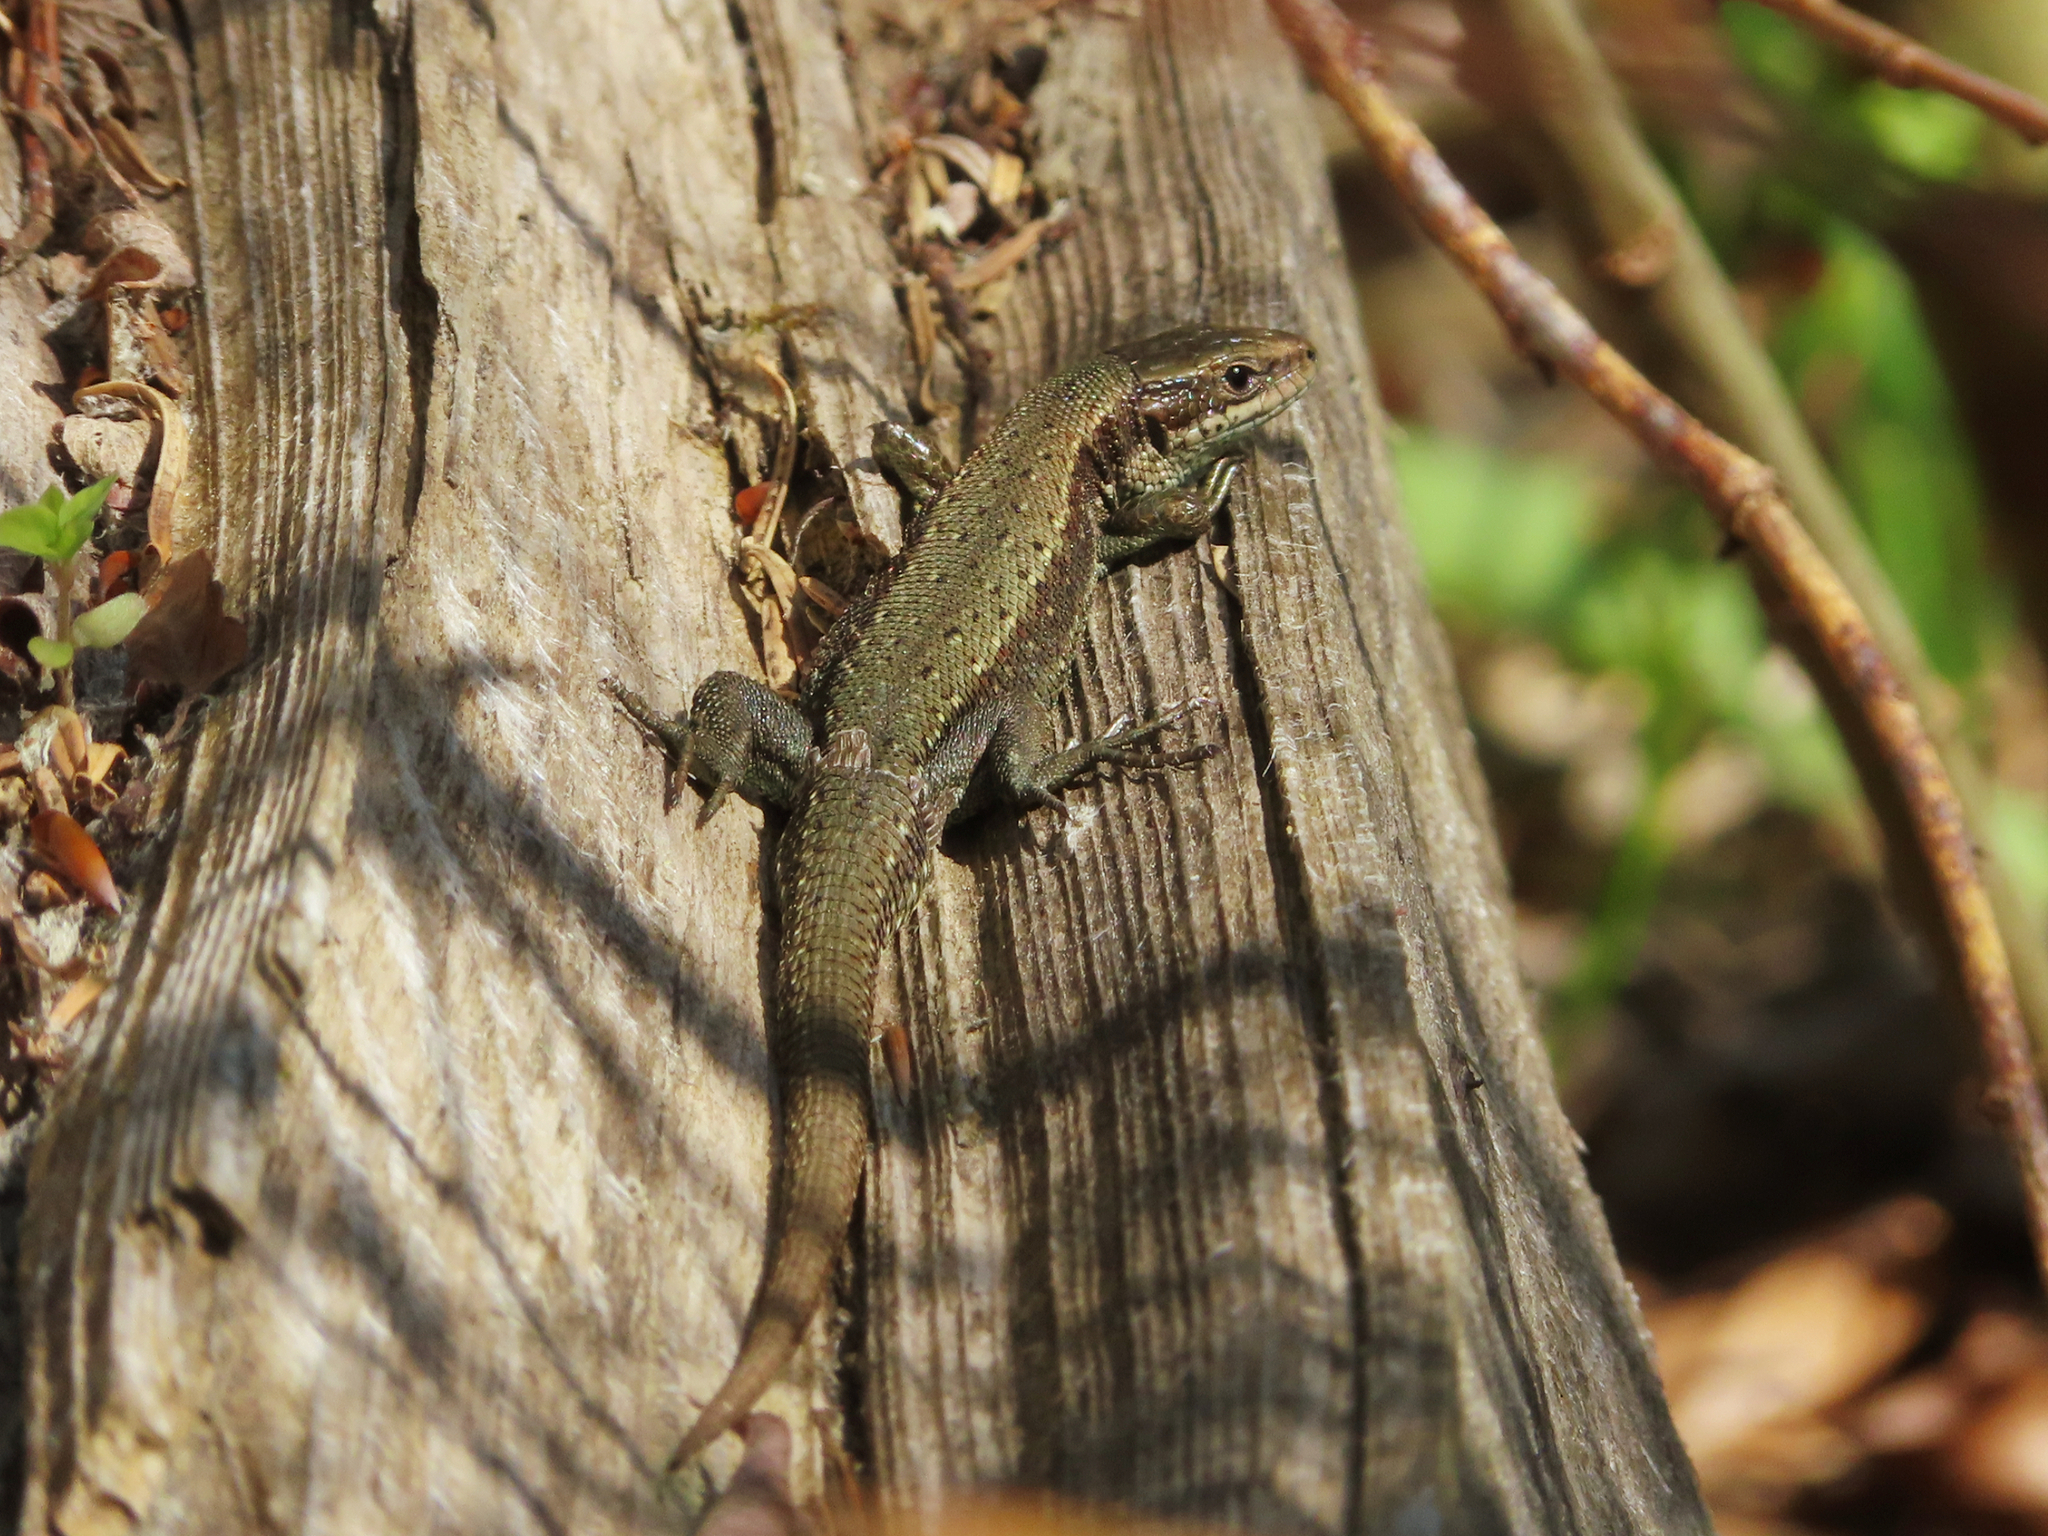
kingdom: Animalia
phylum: Chordata
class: Squamata
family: Lacertidae
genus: Zootoca
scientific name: Zootoca vivipara
